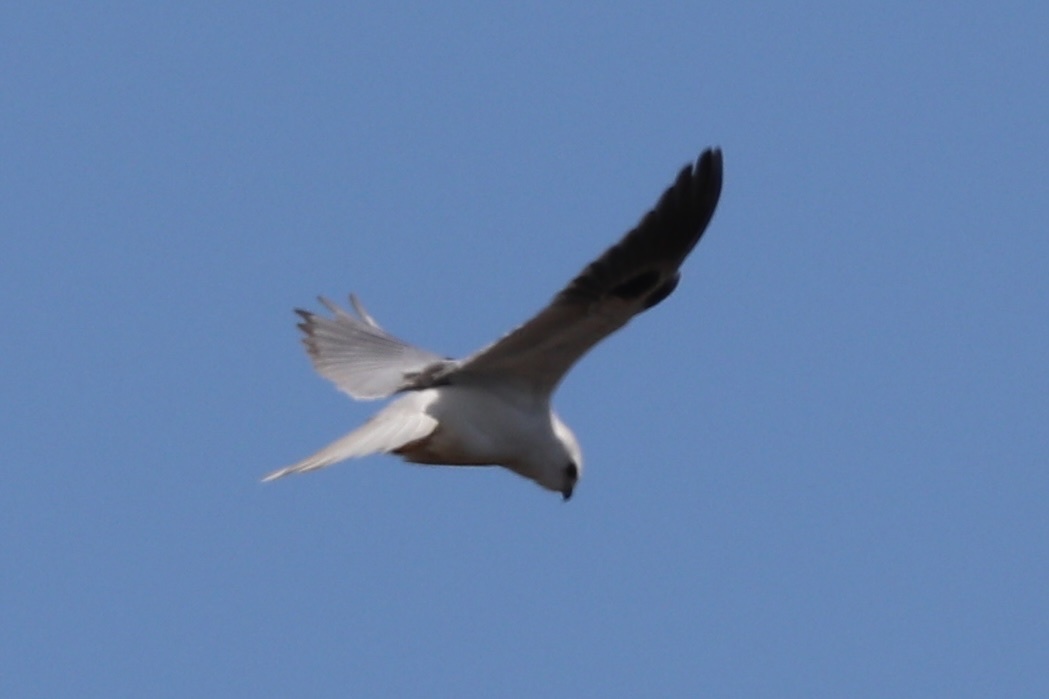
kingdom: Animalia
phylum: Chordata
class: Aves
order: Accipitriformes
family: Accipitridae
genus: Elanus
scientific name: Elanus leucurus
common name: White-tailed kite
